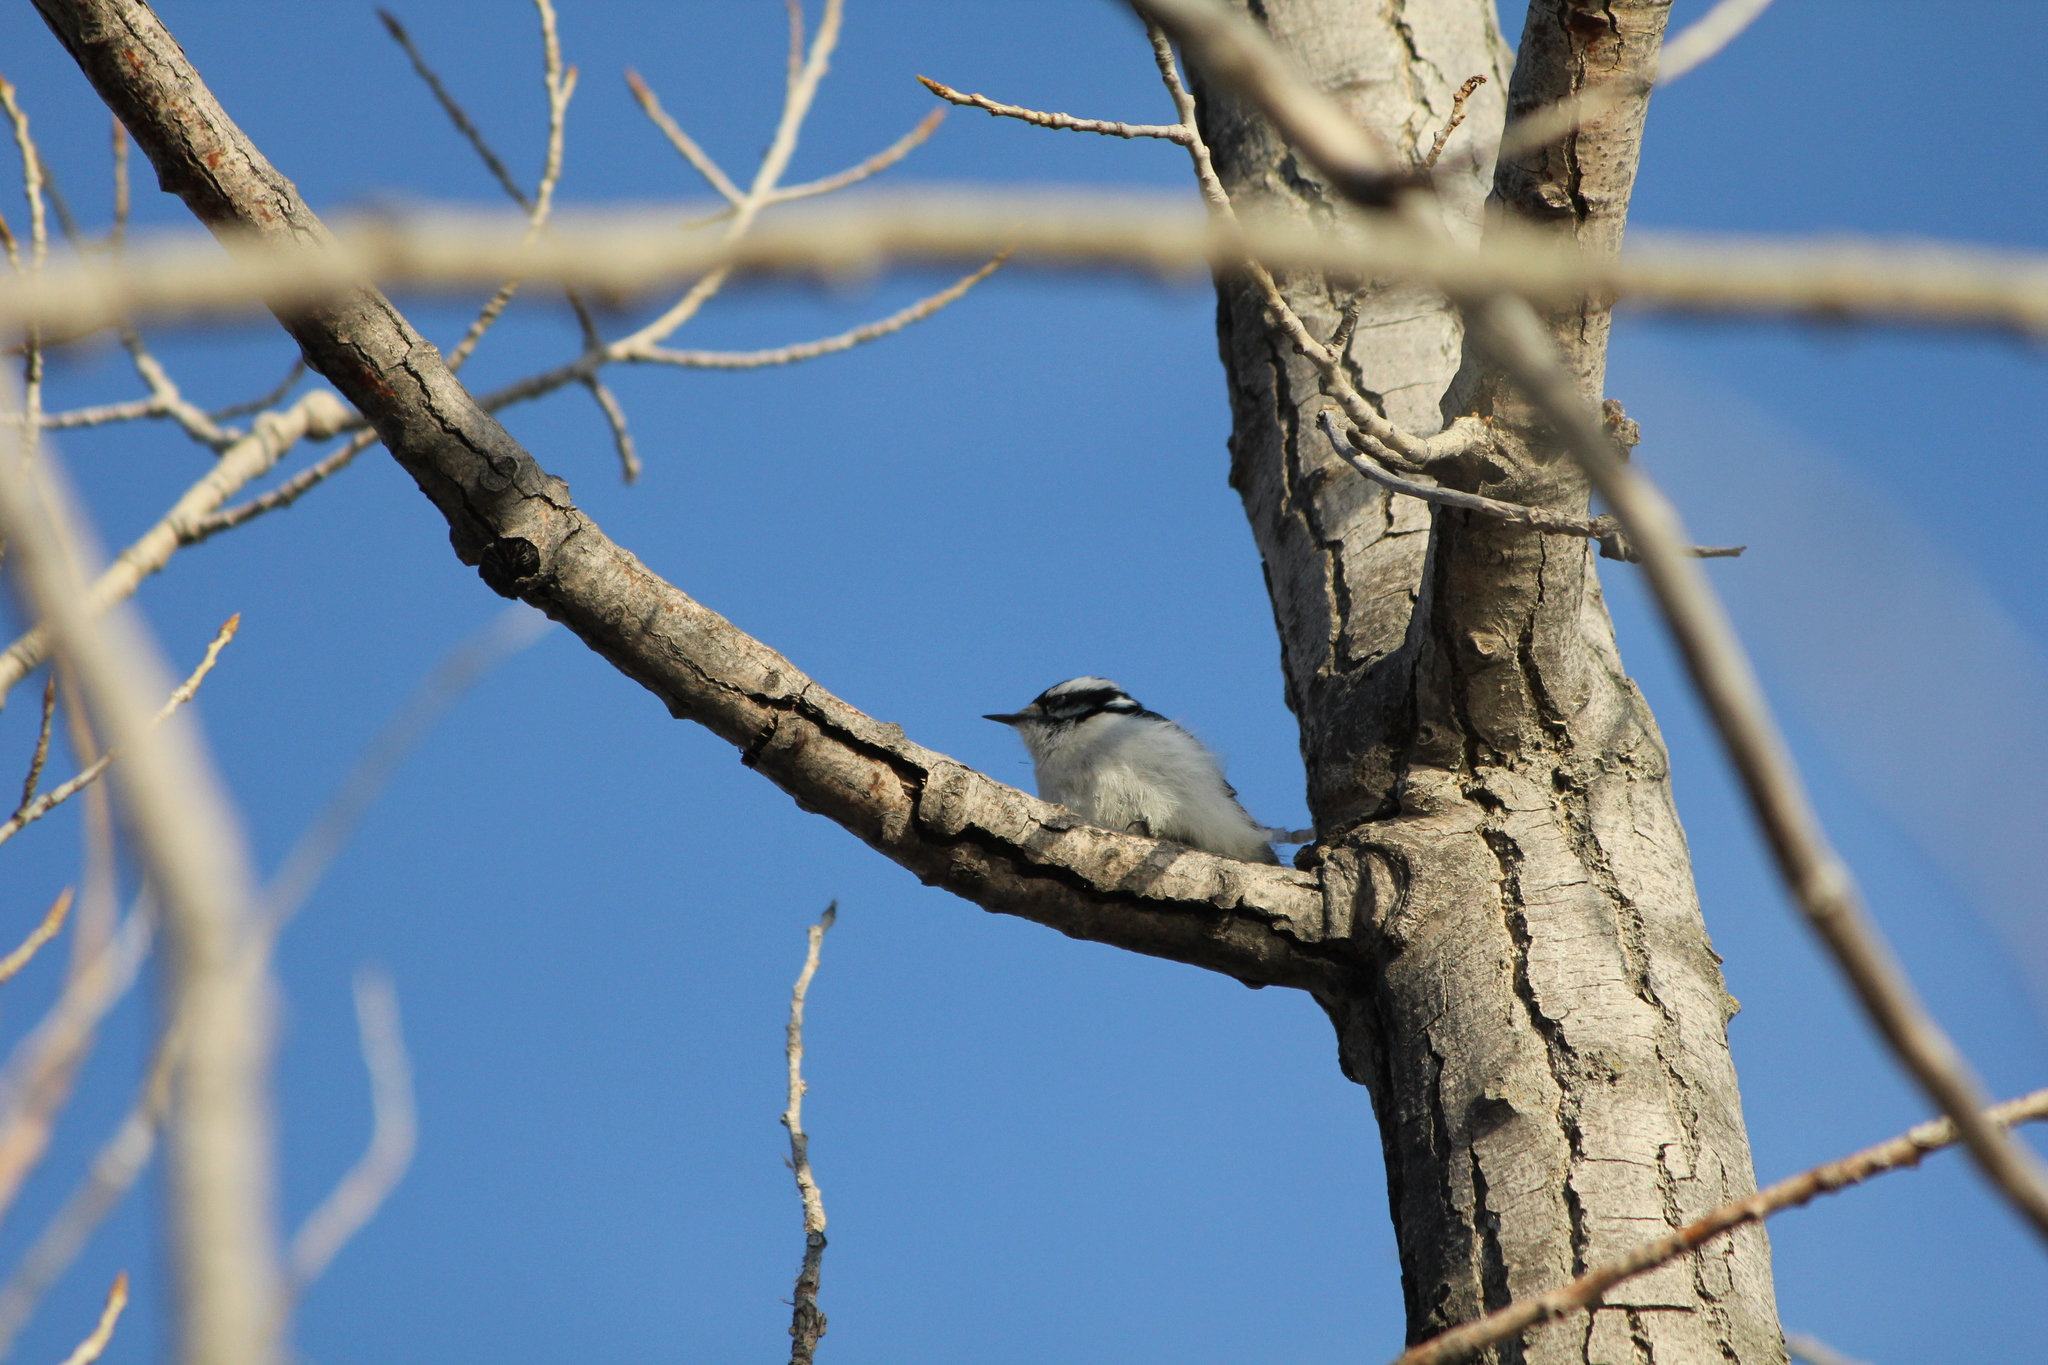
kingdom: Animalia
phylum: Chordata
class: Aves
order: Piciformes
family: Picidae
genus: Dryobates
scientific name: Dryobates pubescens
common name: Downy woodpecker
